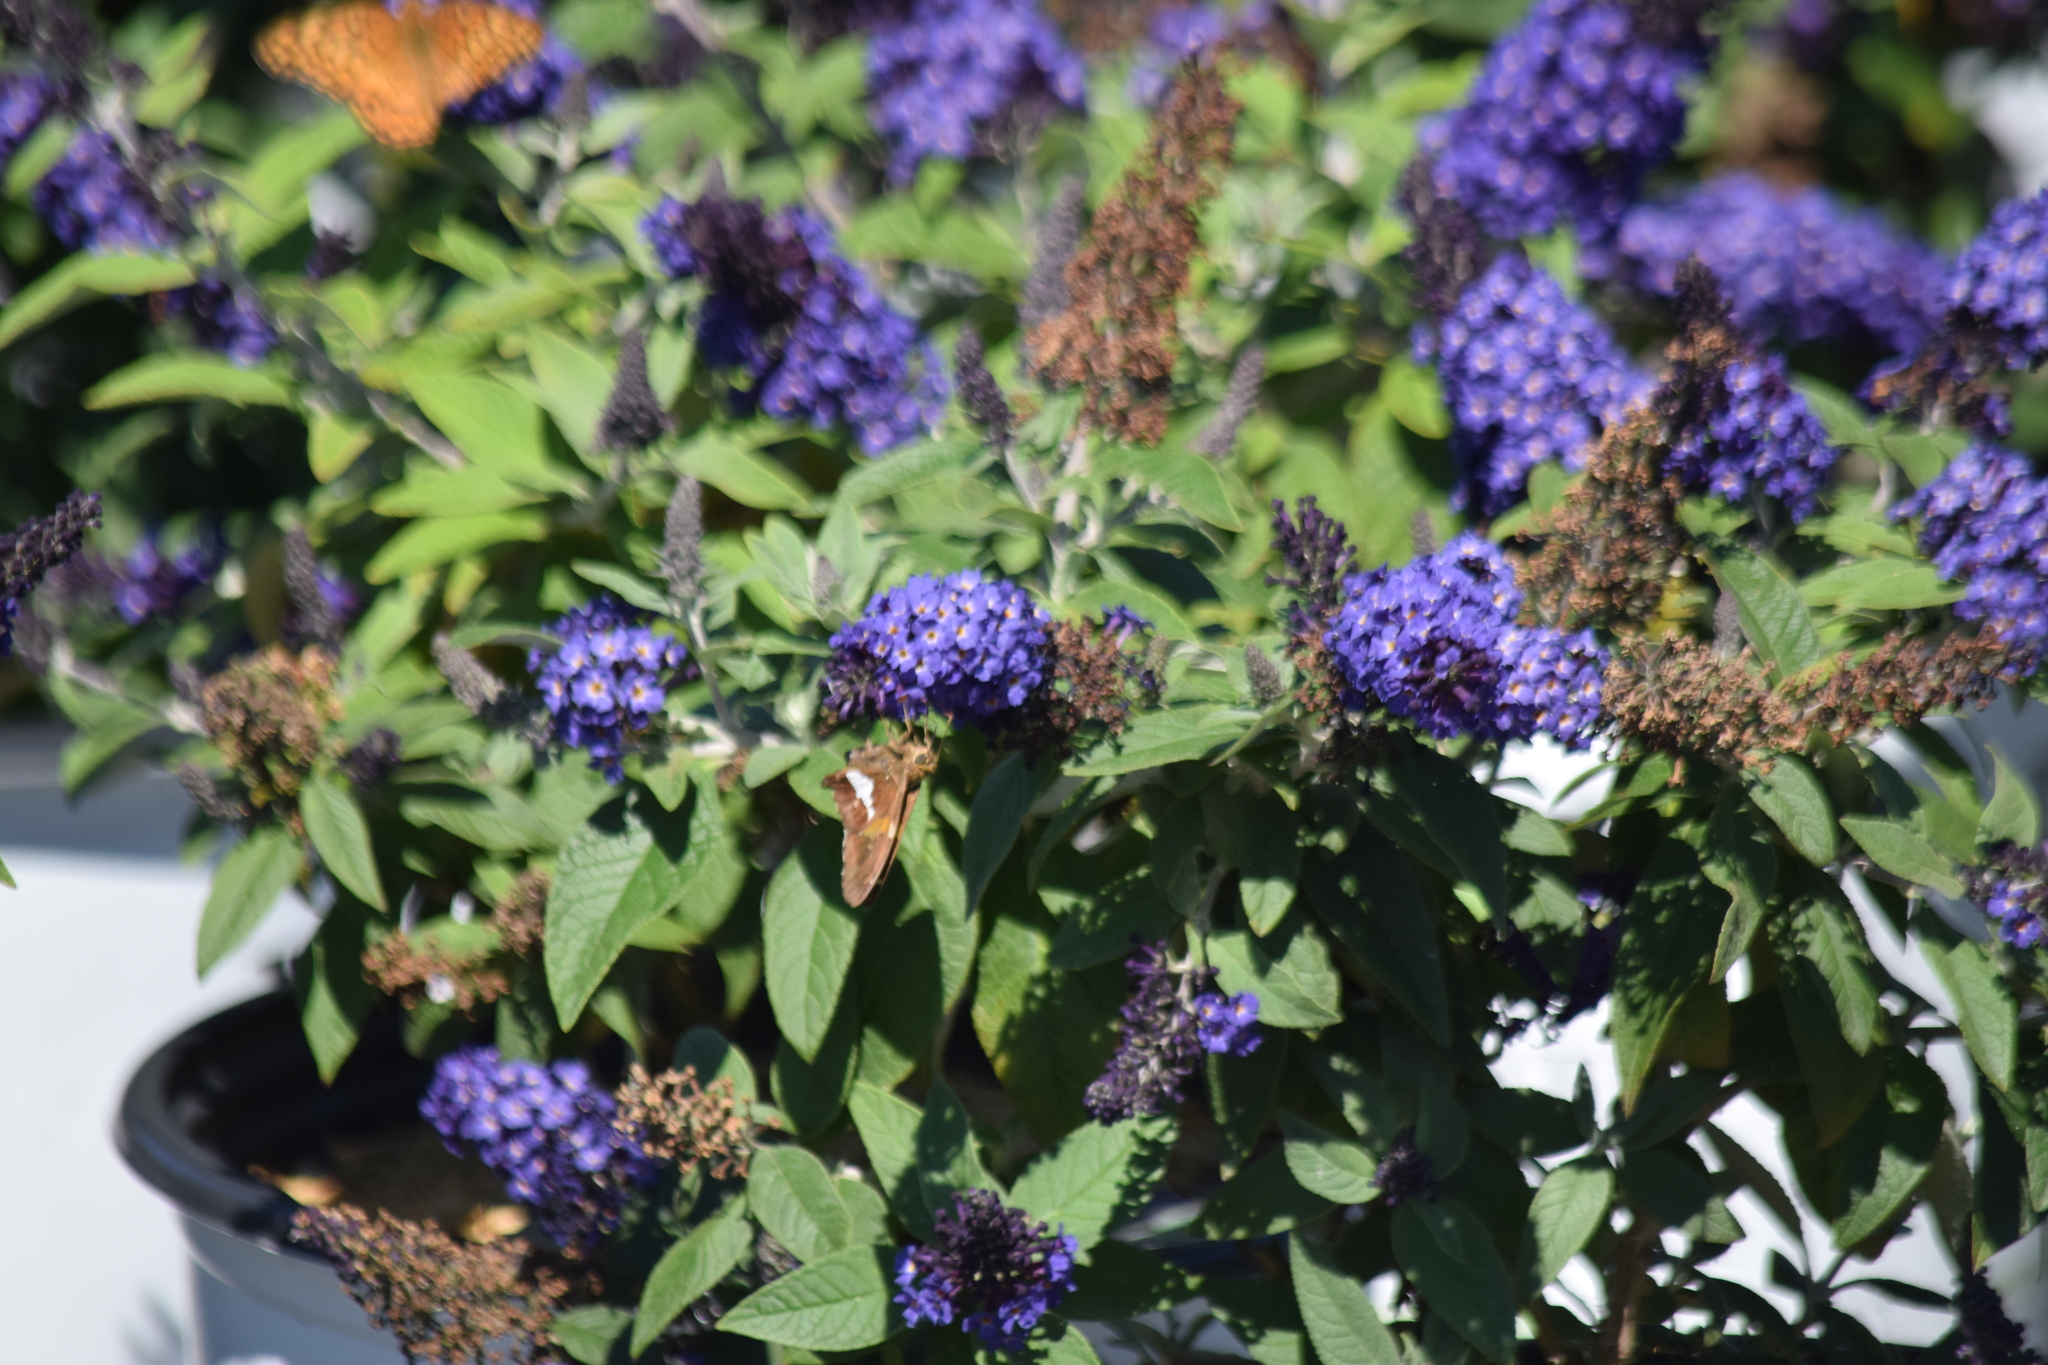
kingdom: Animalia
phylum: Arthropoda
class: Insecta
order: Lepidoptera
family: Hesperiidae
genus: Epargyreus
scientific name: Epargyreus clarus
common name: Silver-spotted skipper
